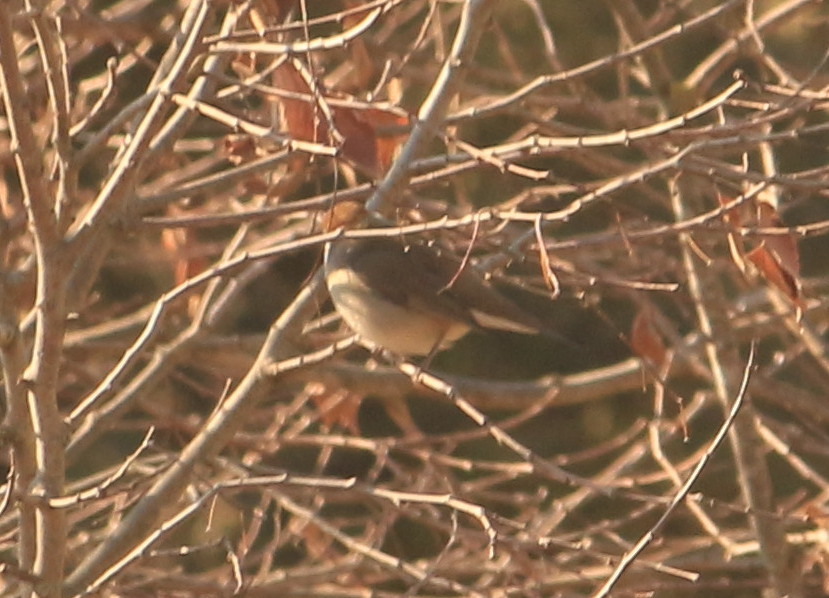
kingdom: Animalia
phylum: Chordata
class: Aves
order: Passeriformes
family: Sylviidae
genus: Sylvia
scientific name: Sylvia atricapilla
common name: Eurasian blackcap
